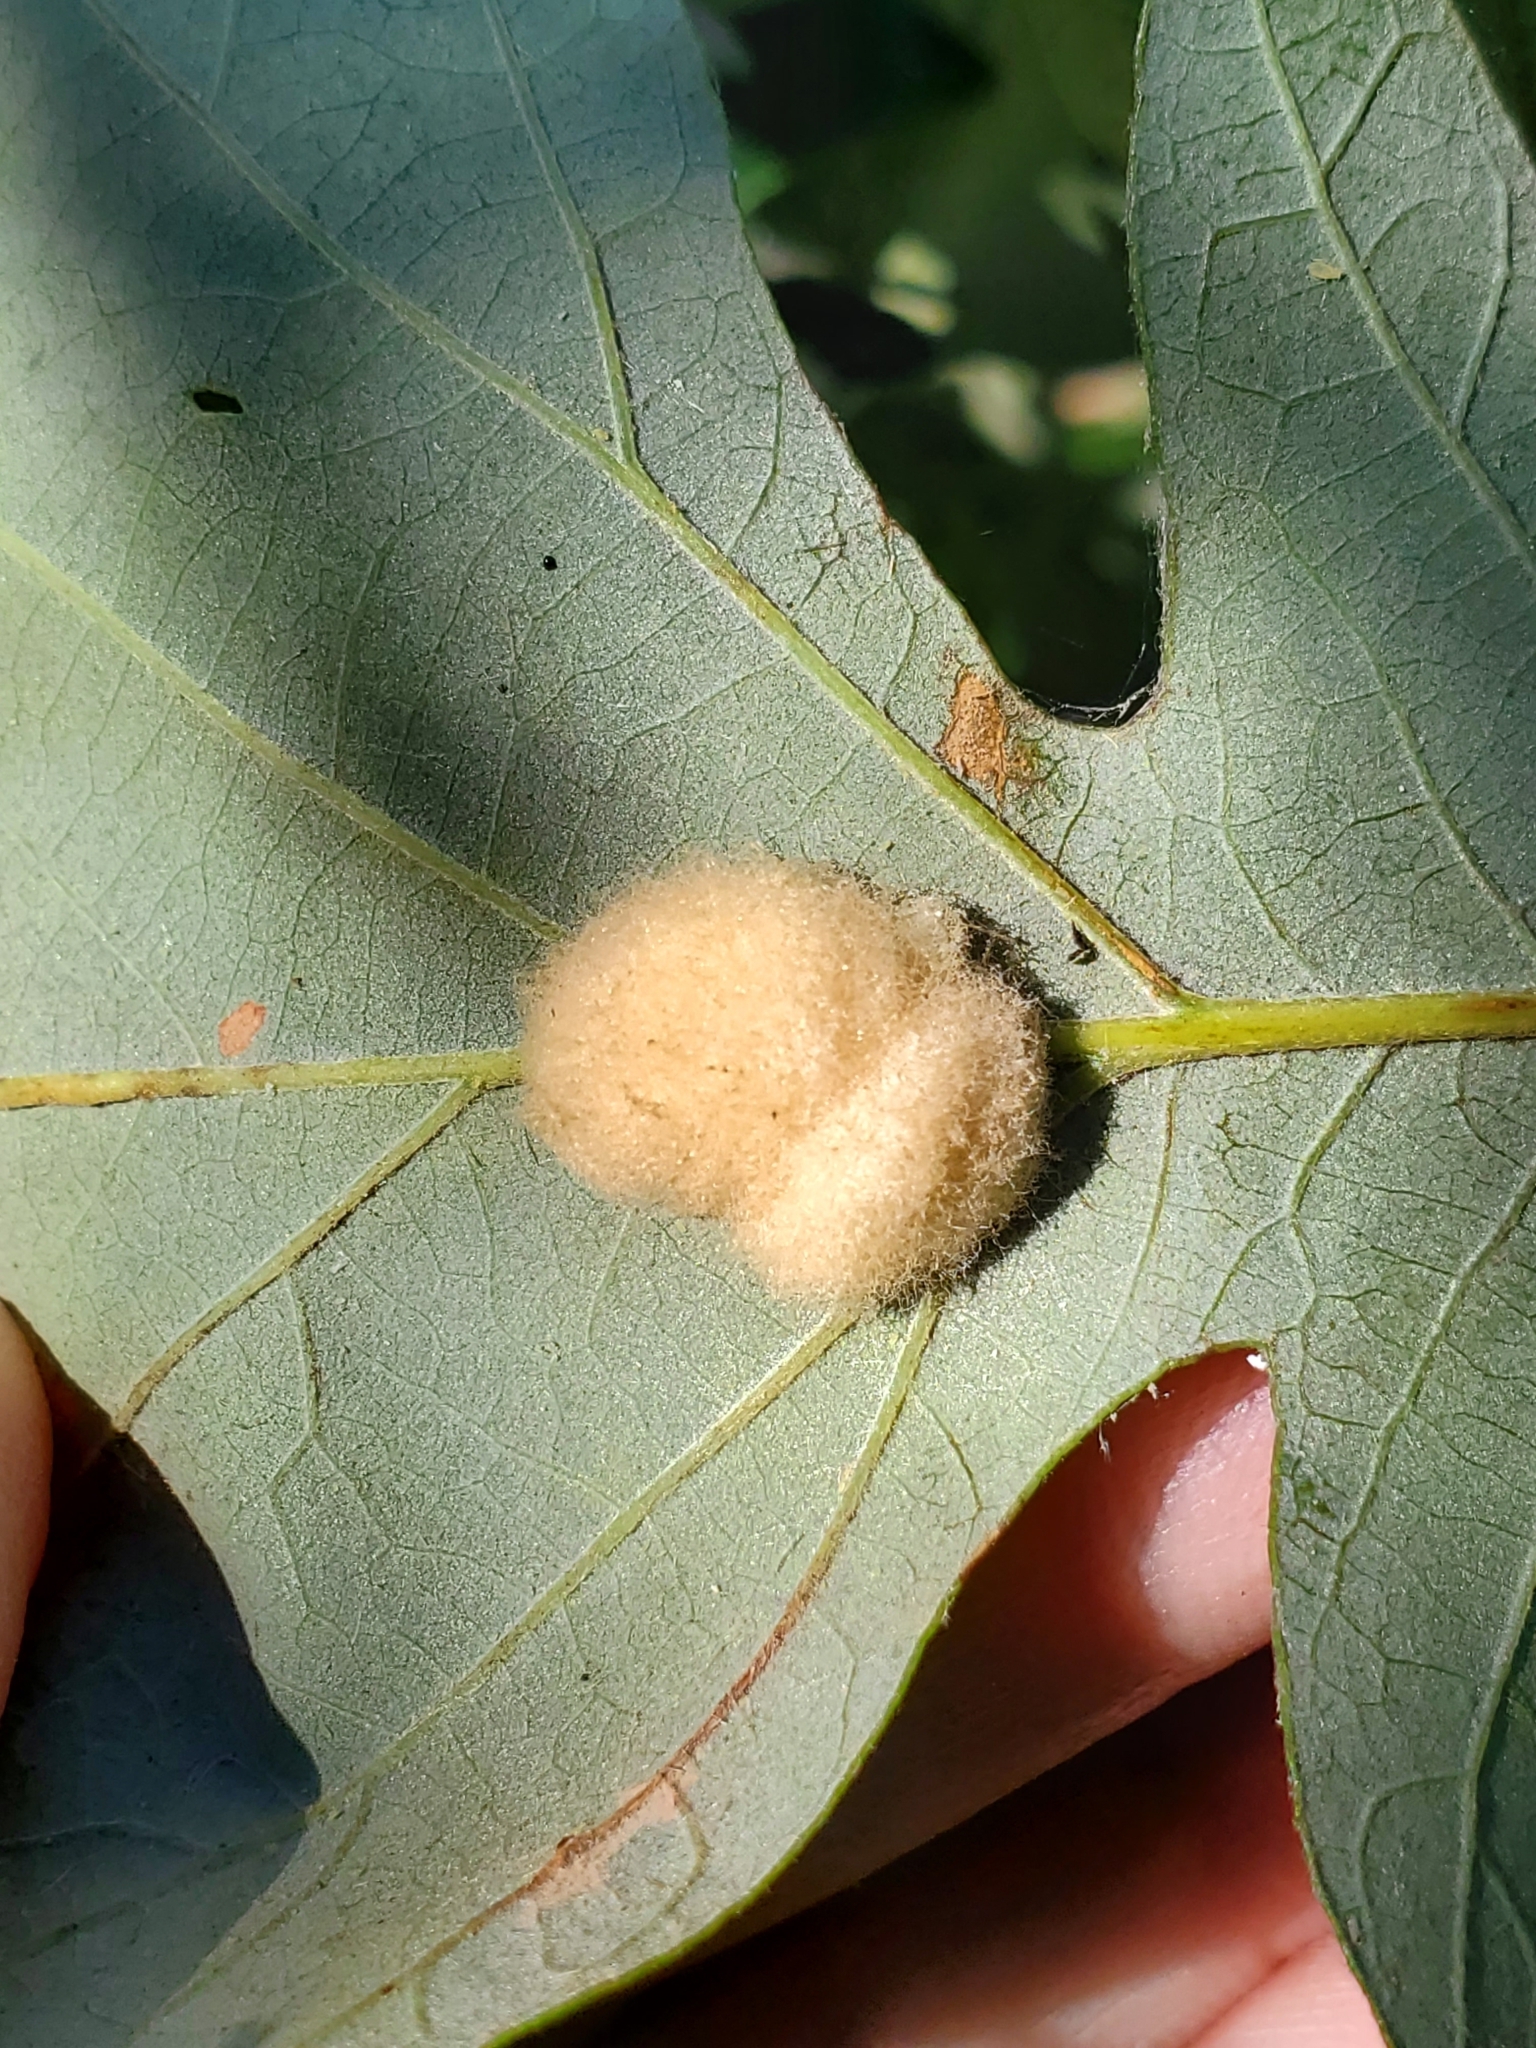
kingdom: Animalia
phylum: Arthropoda
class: Insecta
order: Hymenoptera
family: Cynipidae
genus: Andricus
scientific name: Andricus Druon ignotum
